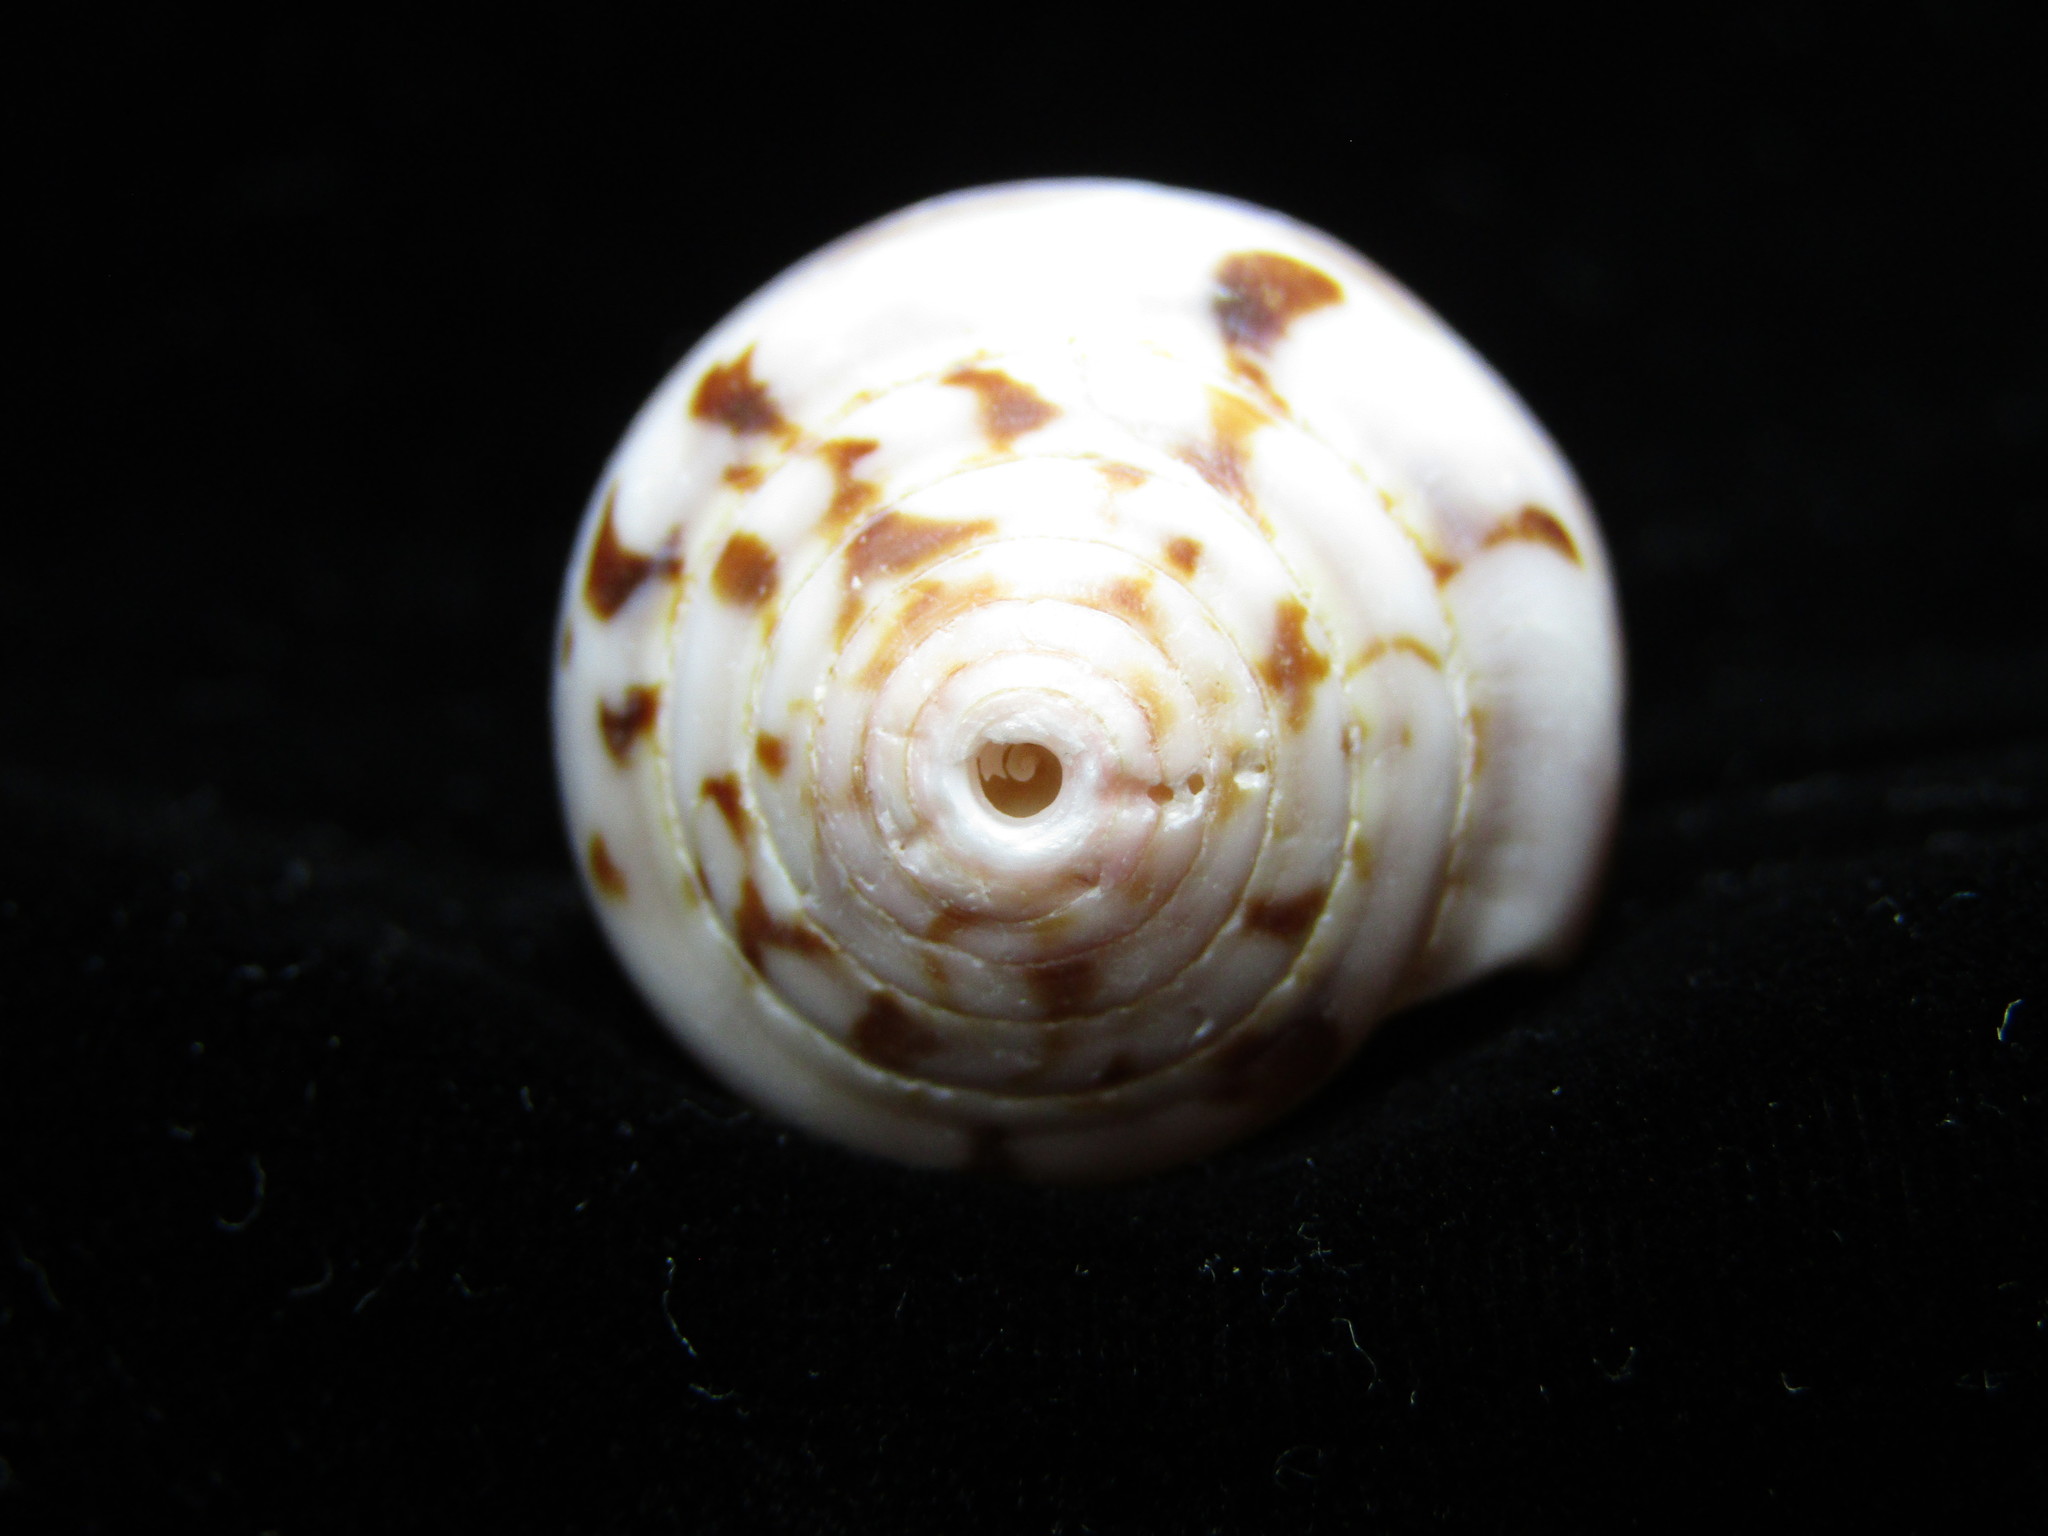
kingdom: Animalia
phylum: Mollusca
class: Gastropoda
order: Neogastropoda
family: Conidae
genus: Conus
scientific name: Conus fulmen
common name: Fulmen's cone
